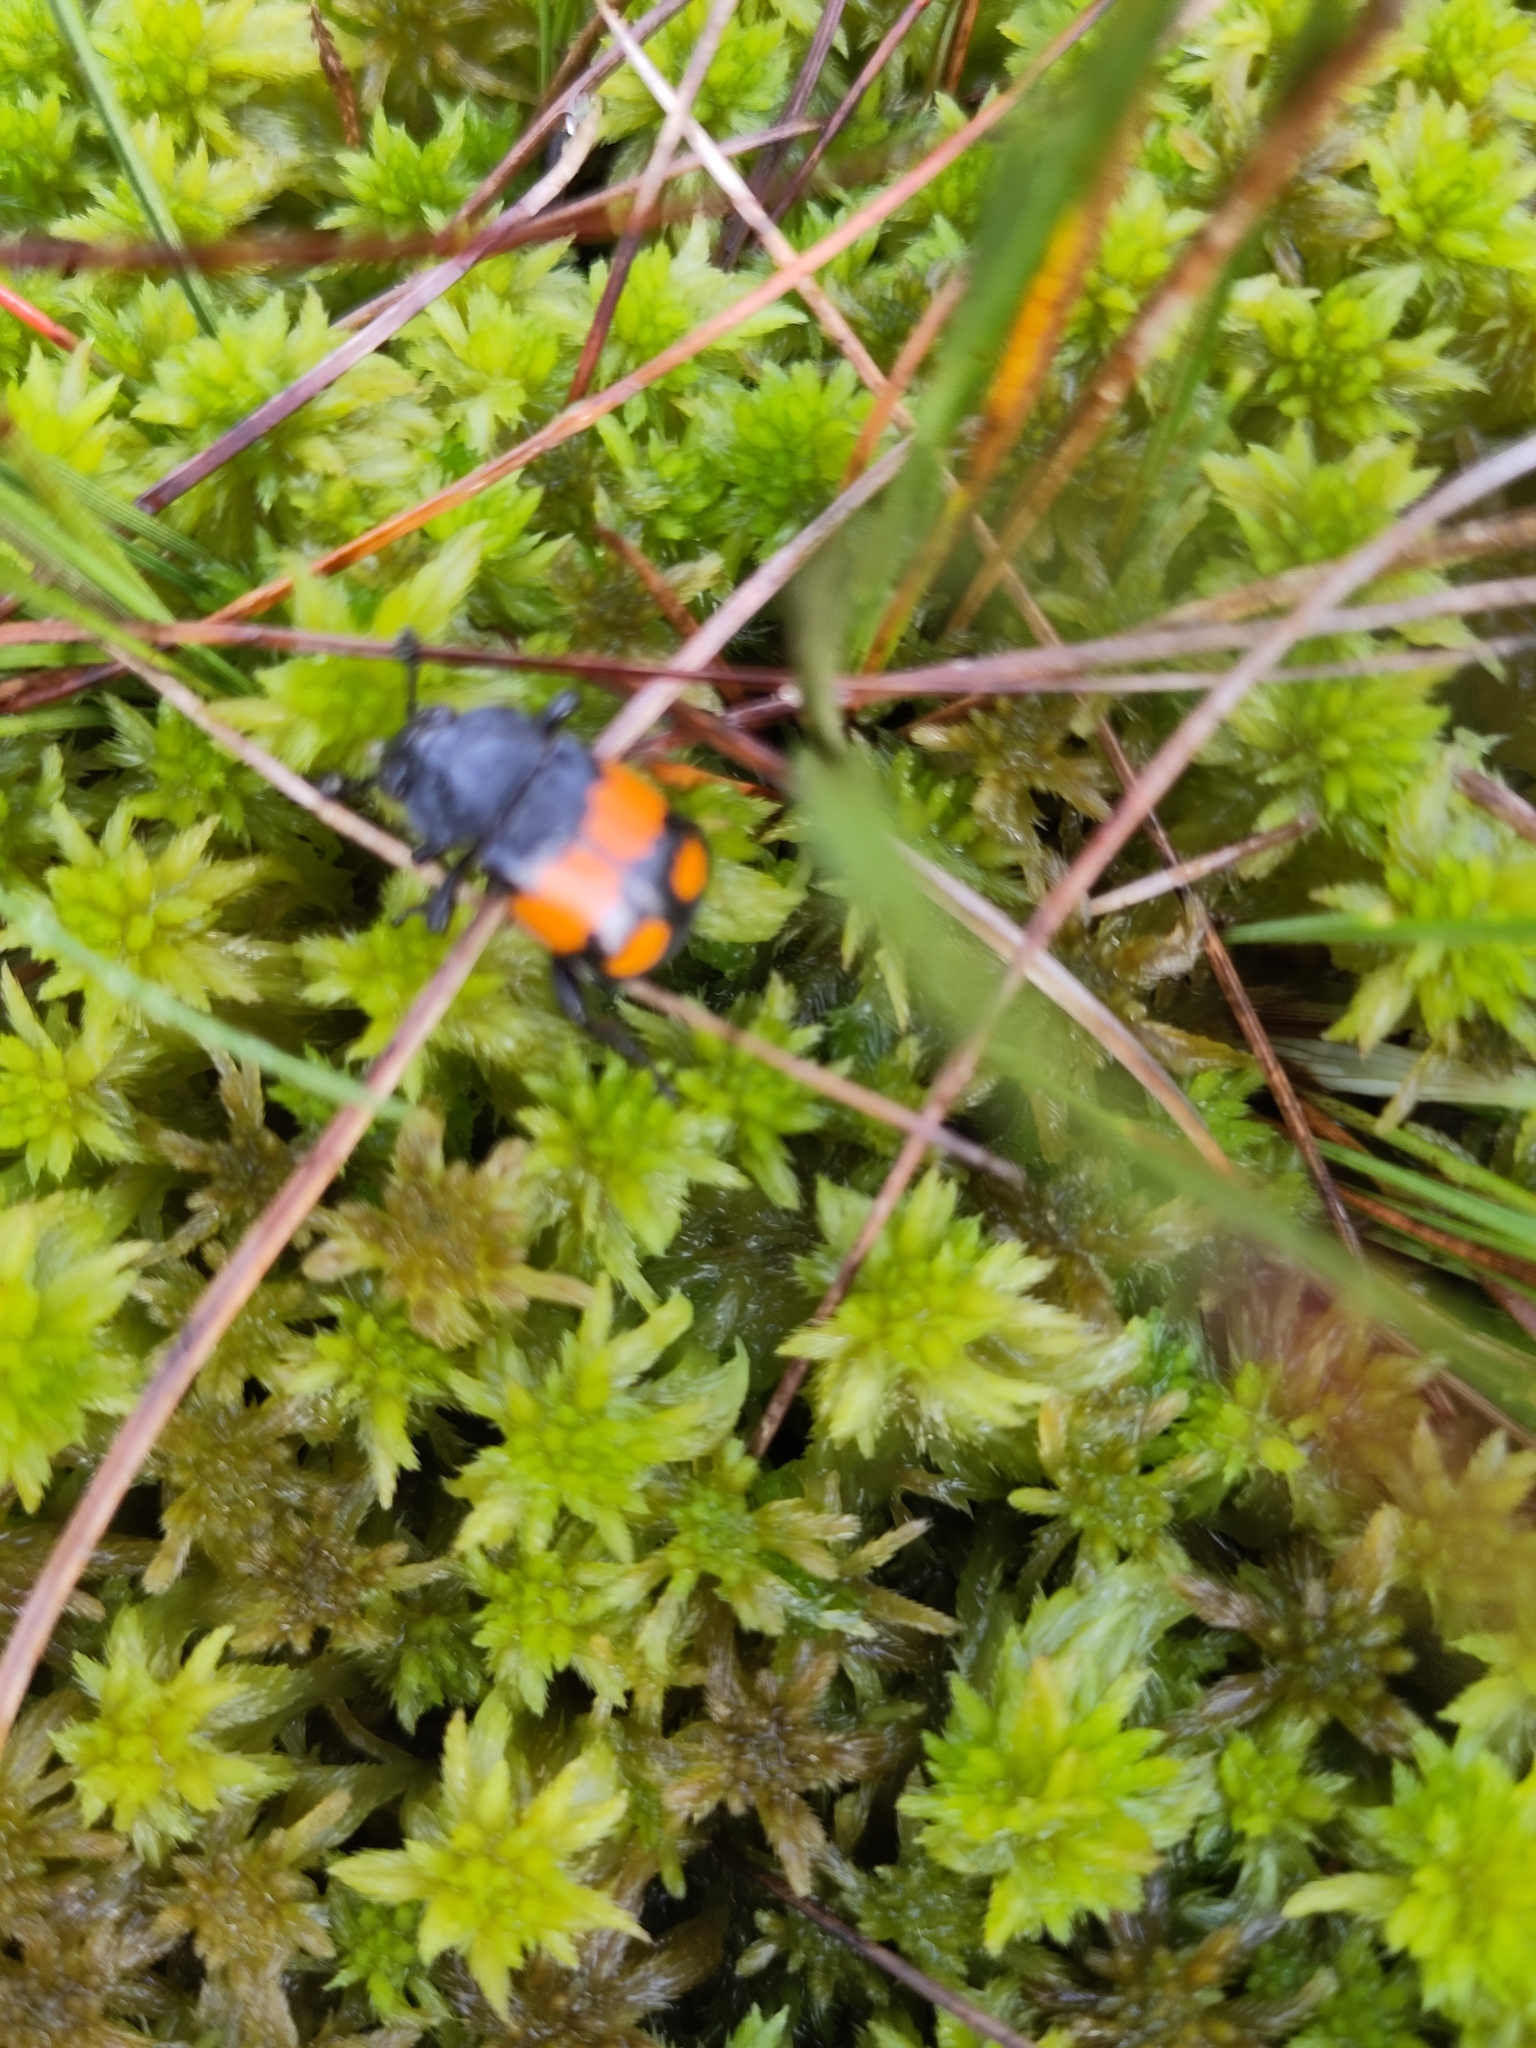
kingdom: Animalia
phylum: Arthropoda
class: Insecta
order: Coleoptera
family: Staphylinidae
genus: Nicrophorus
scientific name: Nicrophorus vespilloides
